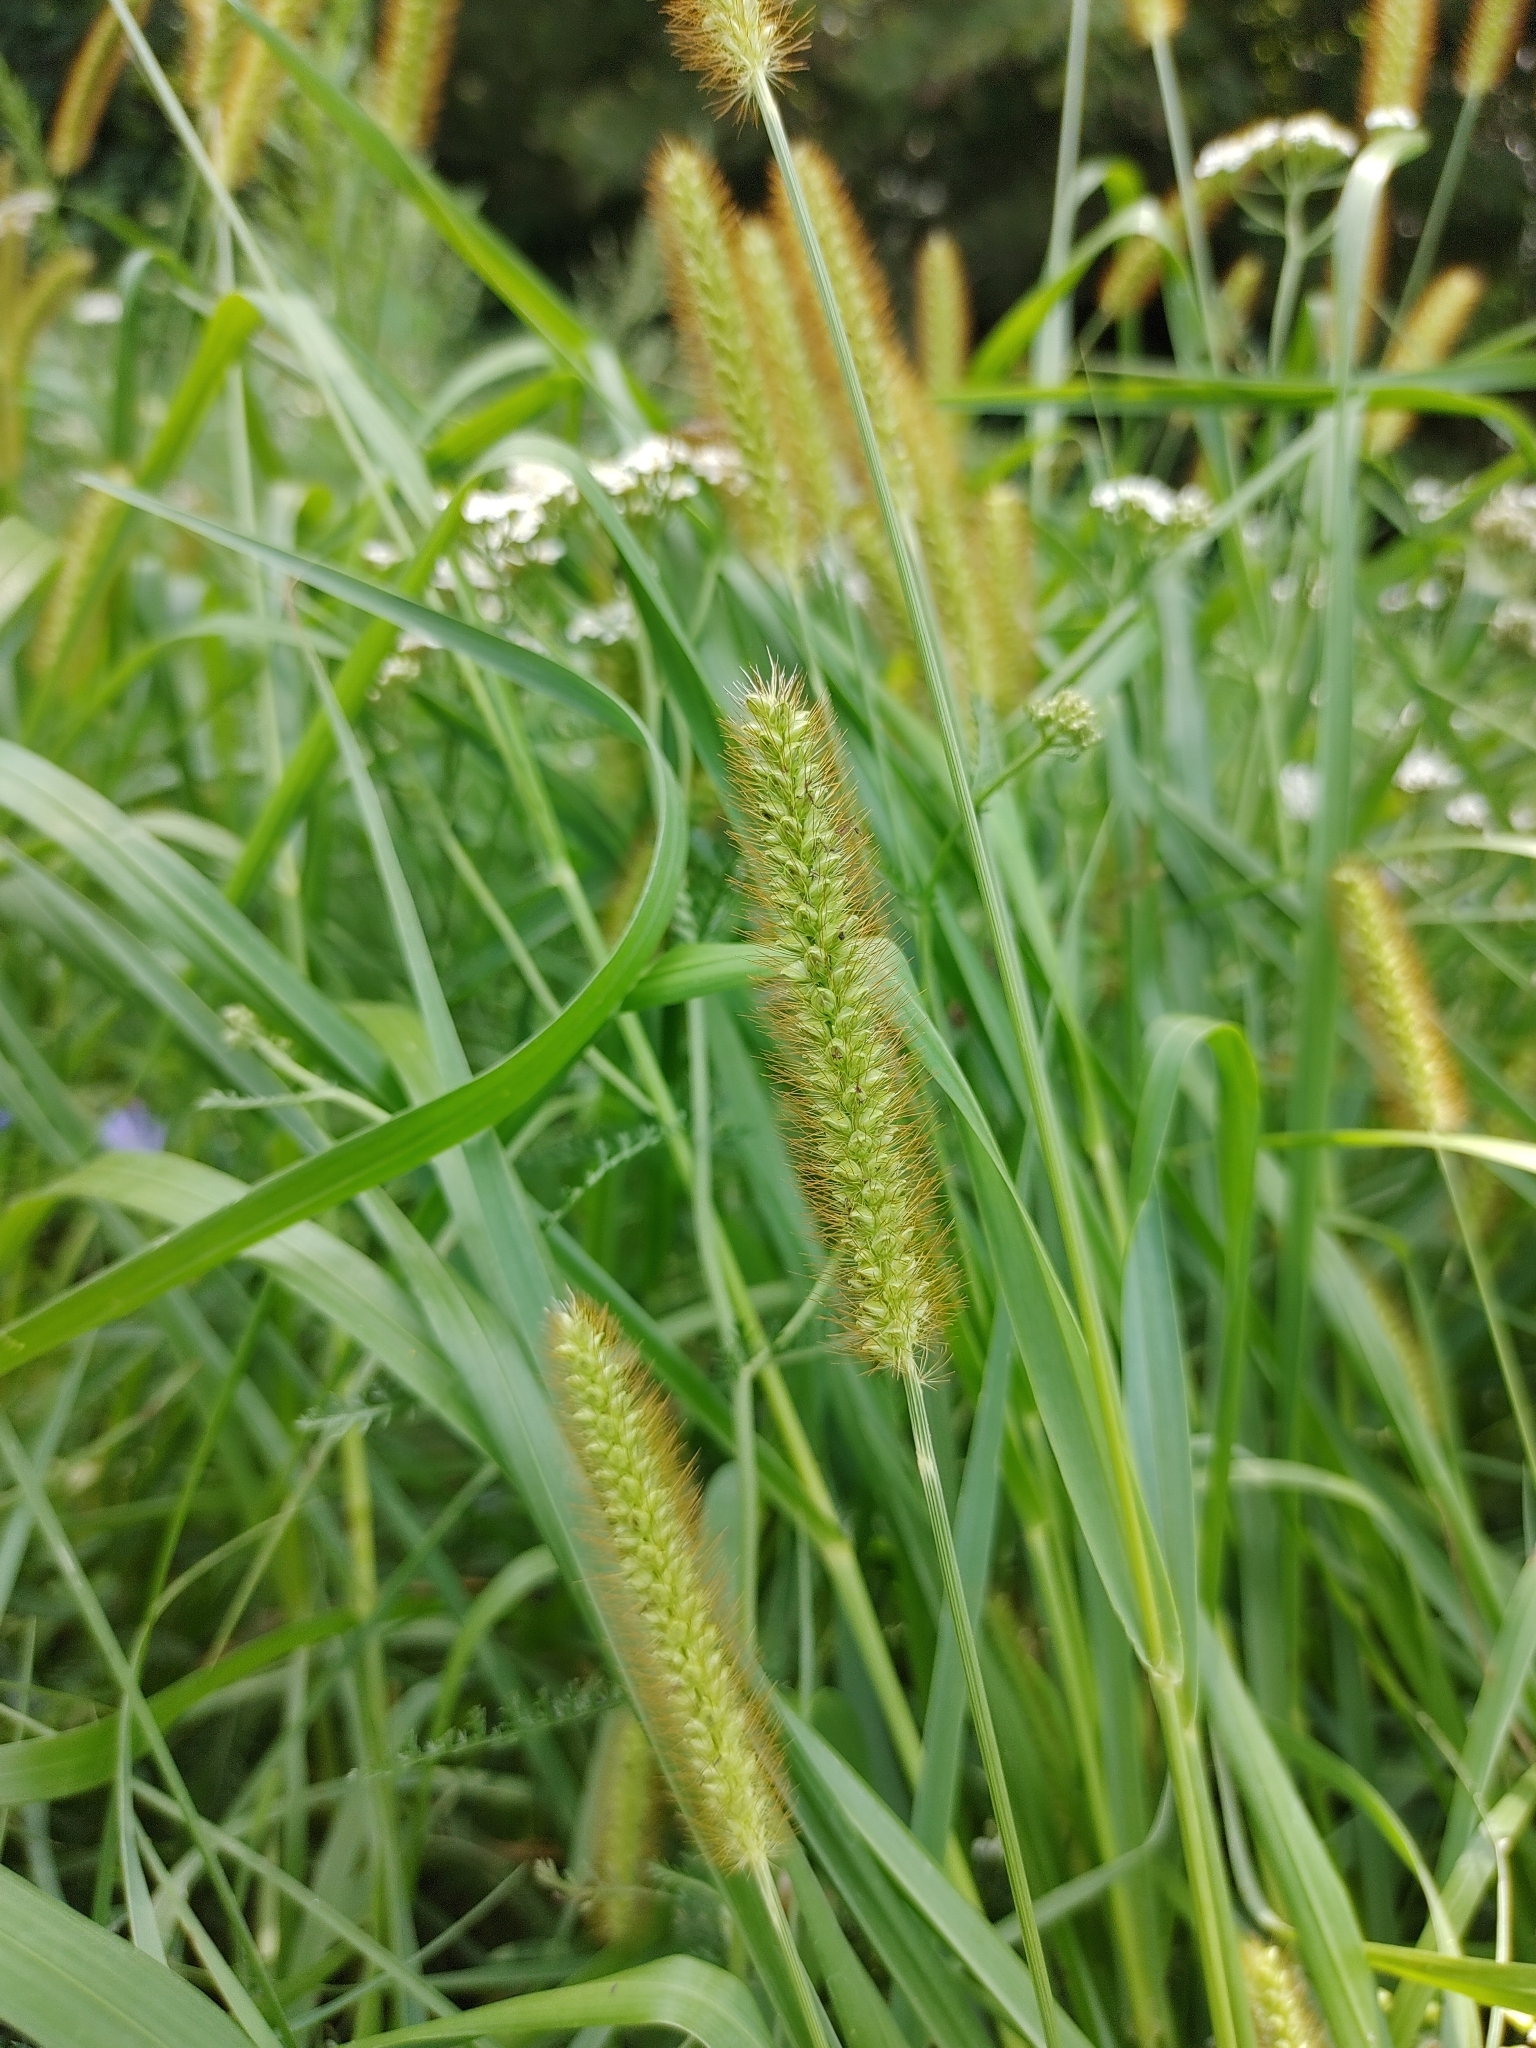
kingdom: Plantae
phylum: Tracheophyta
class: Liliopsida
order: Poales
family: Poaceae
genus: Setaria
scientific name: Setaria pumila
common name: Yellow bristle-grass
